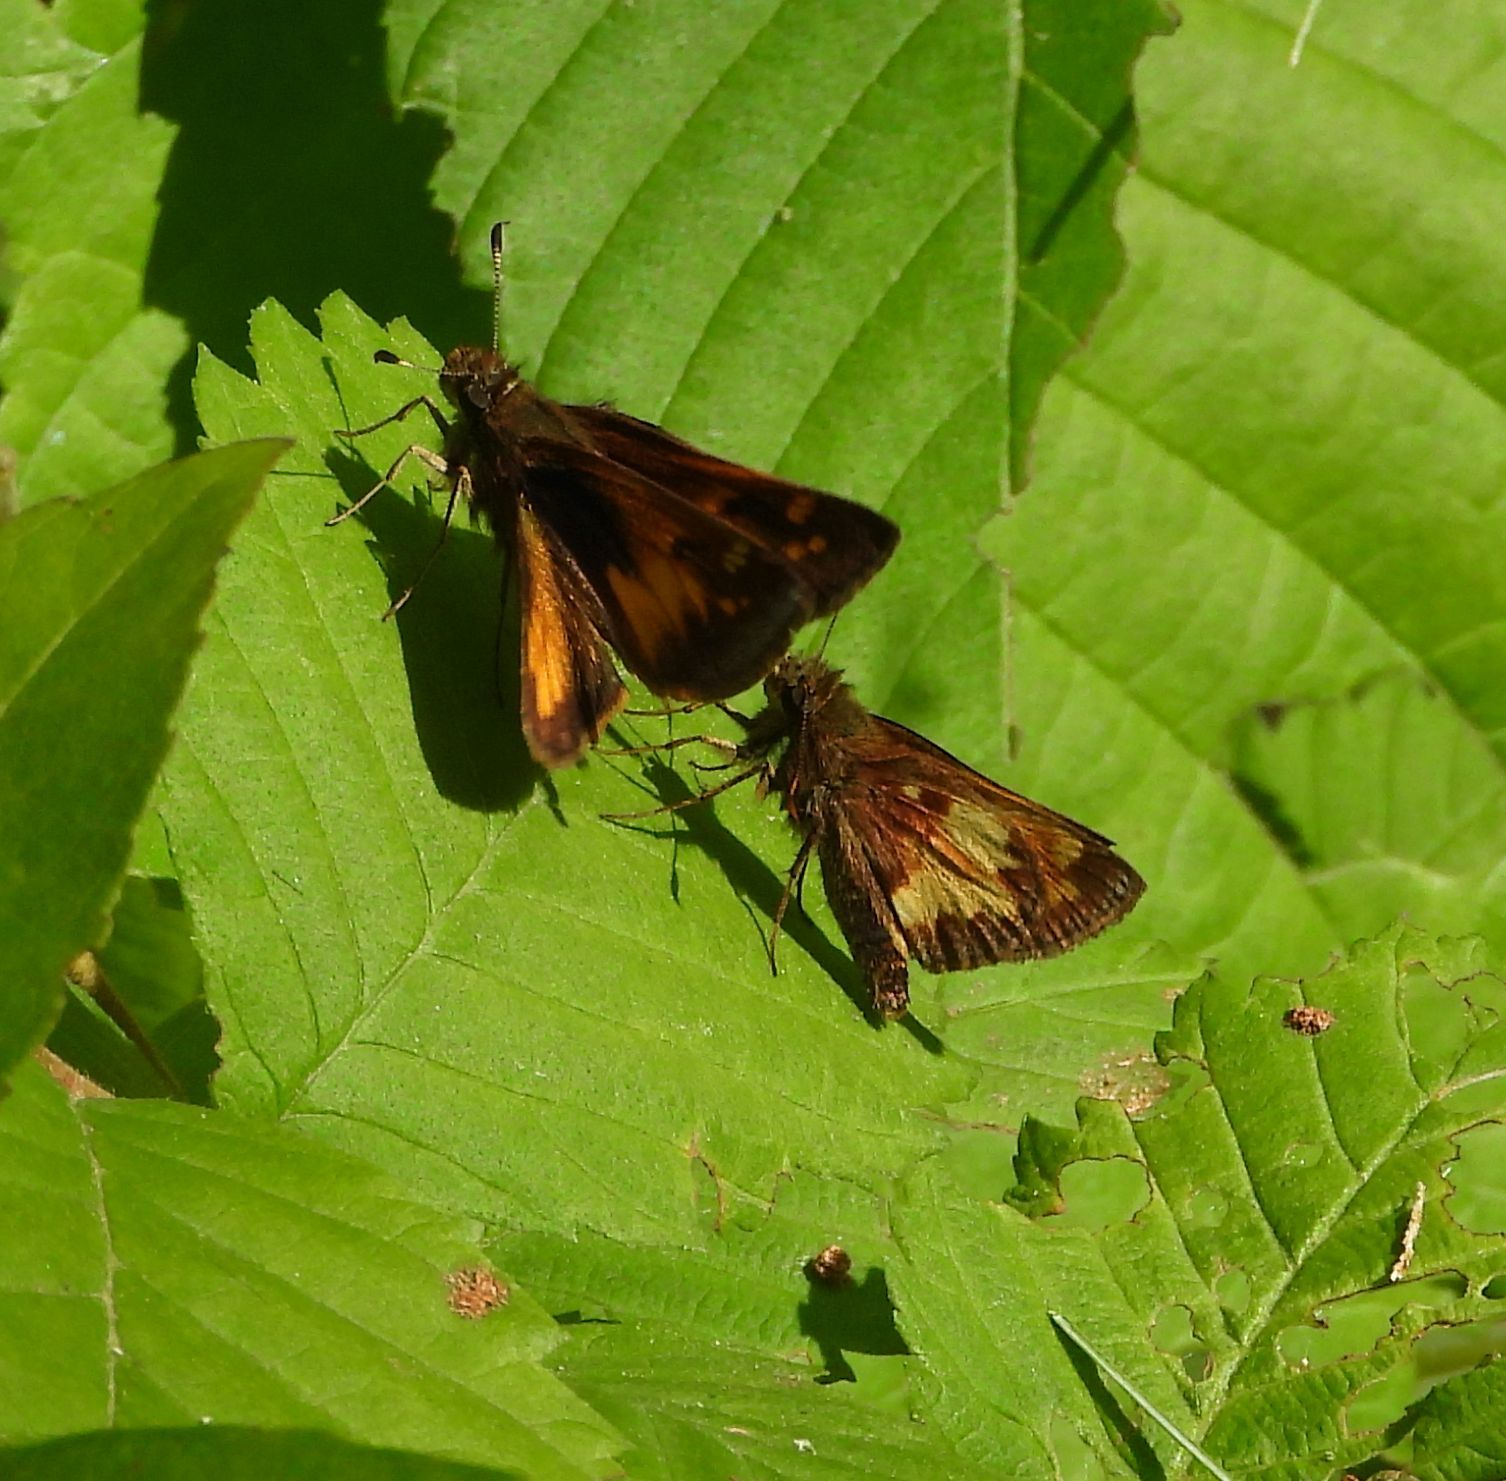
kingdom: Animalia
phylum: Arthropoda
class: Insecta
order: Lepidoptera
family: Hesperiidae
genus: Lon
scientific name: Lon hobomok
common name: Hobomok skipper
